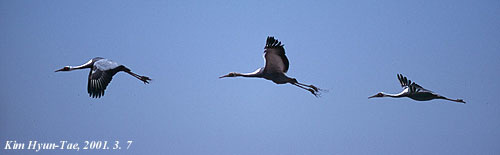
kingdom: Animalia
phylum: Chordata
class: Aves
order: Gruiformes
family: Gruidae
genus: Grus
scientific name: Grus vipio
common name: White-naped crane
